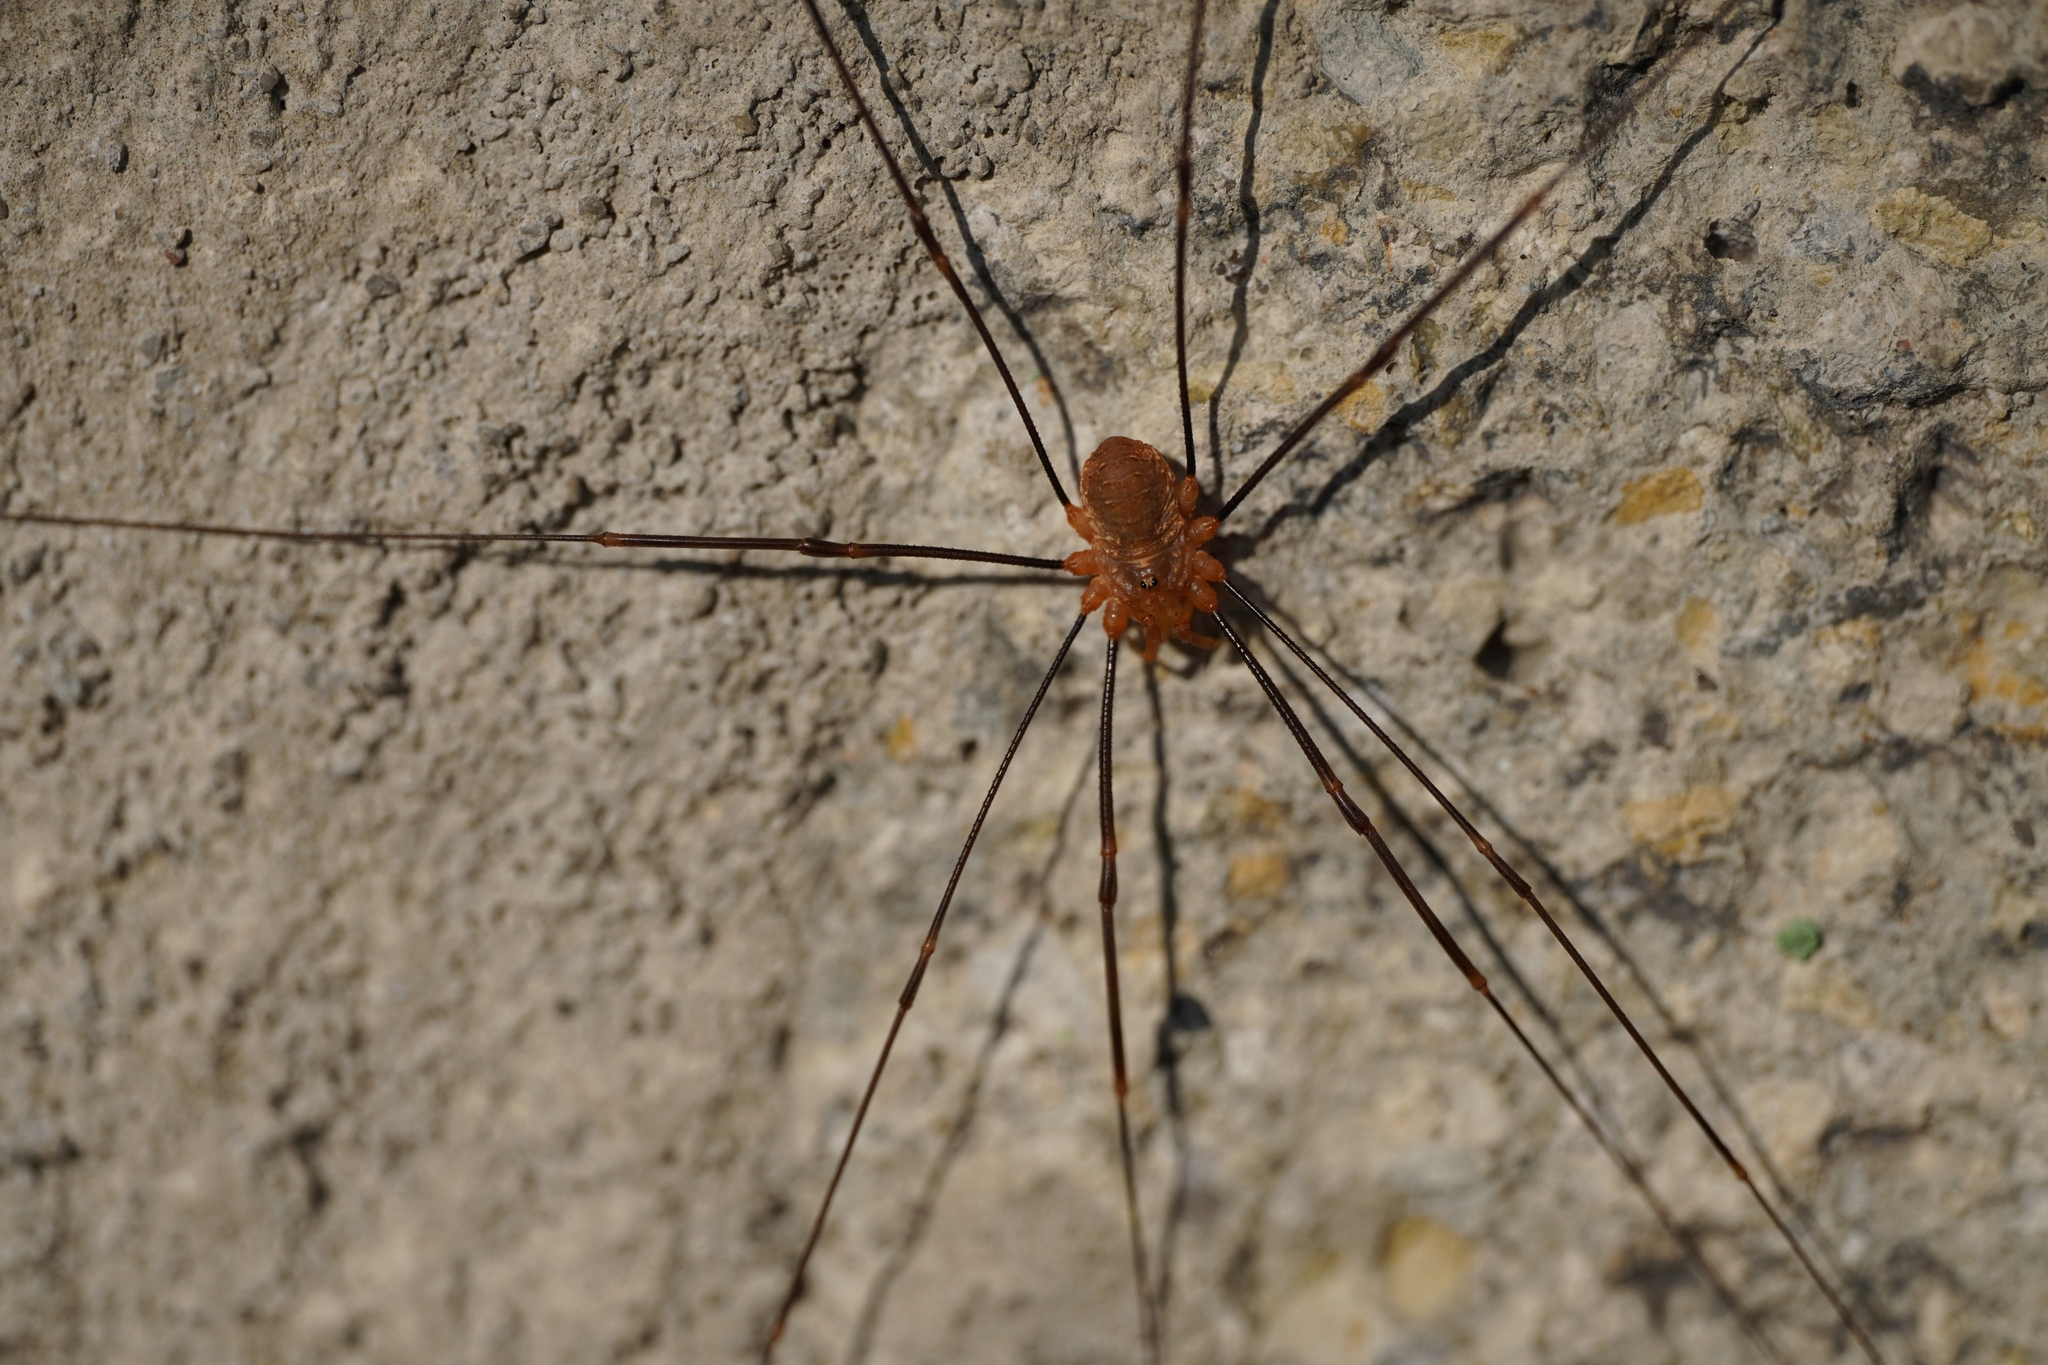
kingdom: Animalia
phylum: Arthropoda
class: Arachnida
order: Opiliones
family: Phalangiidae
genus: Opilio
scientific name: Opilio canestrinii
